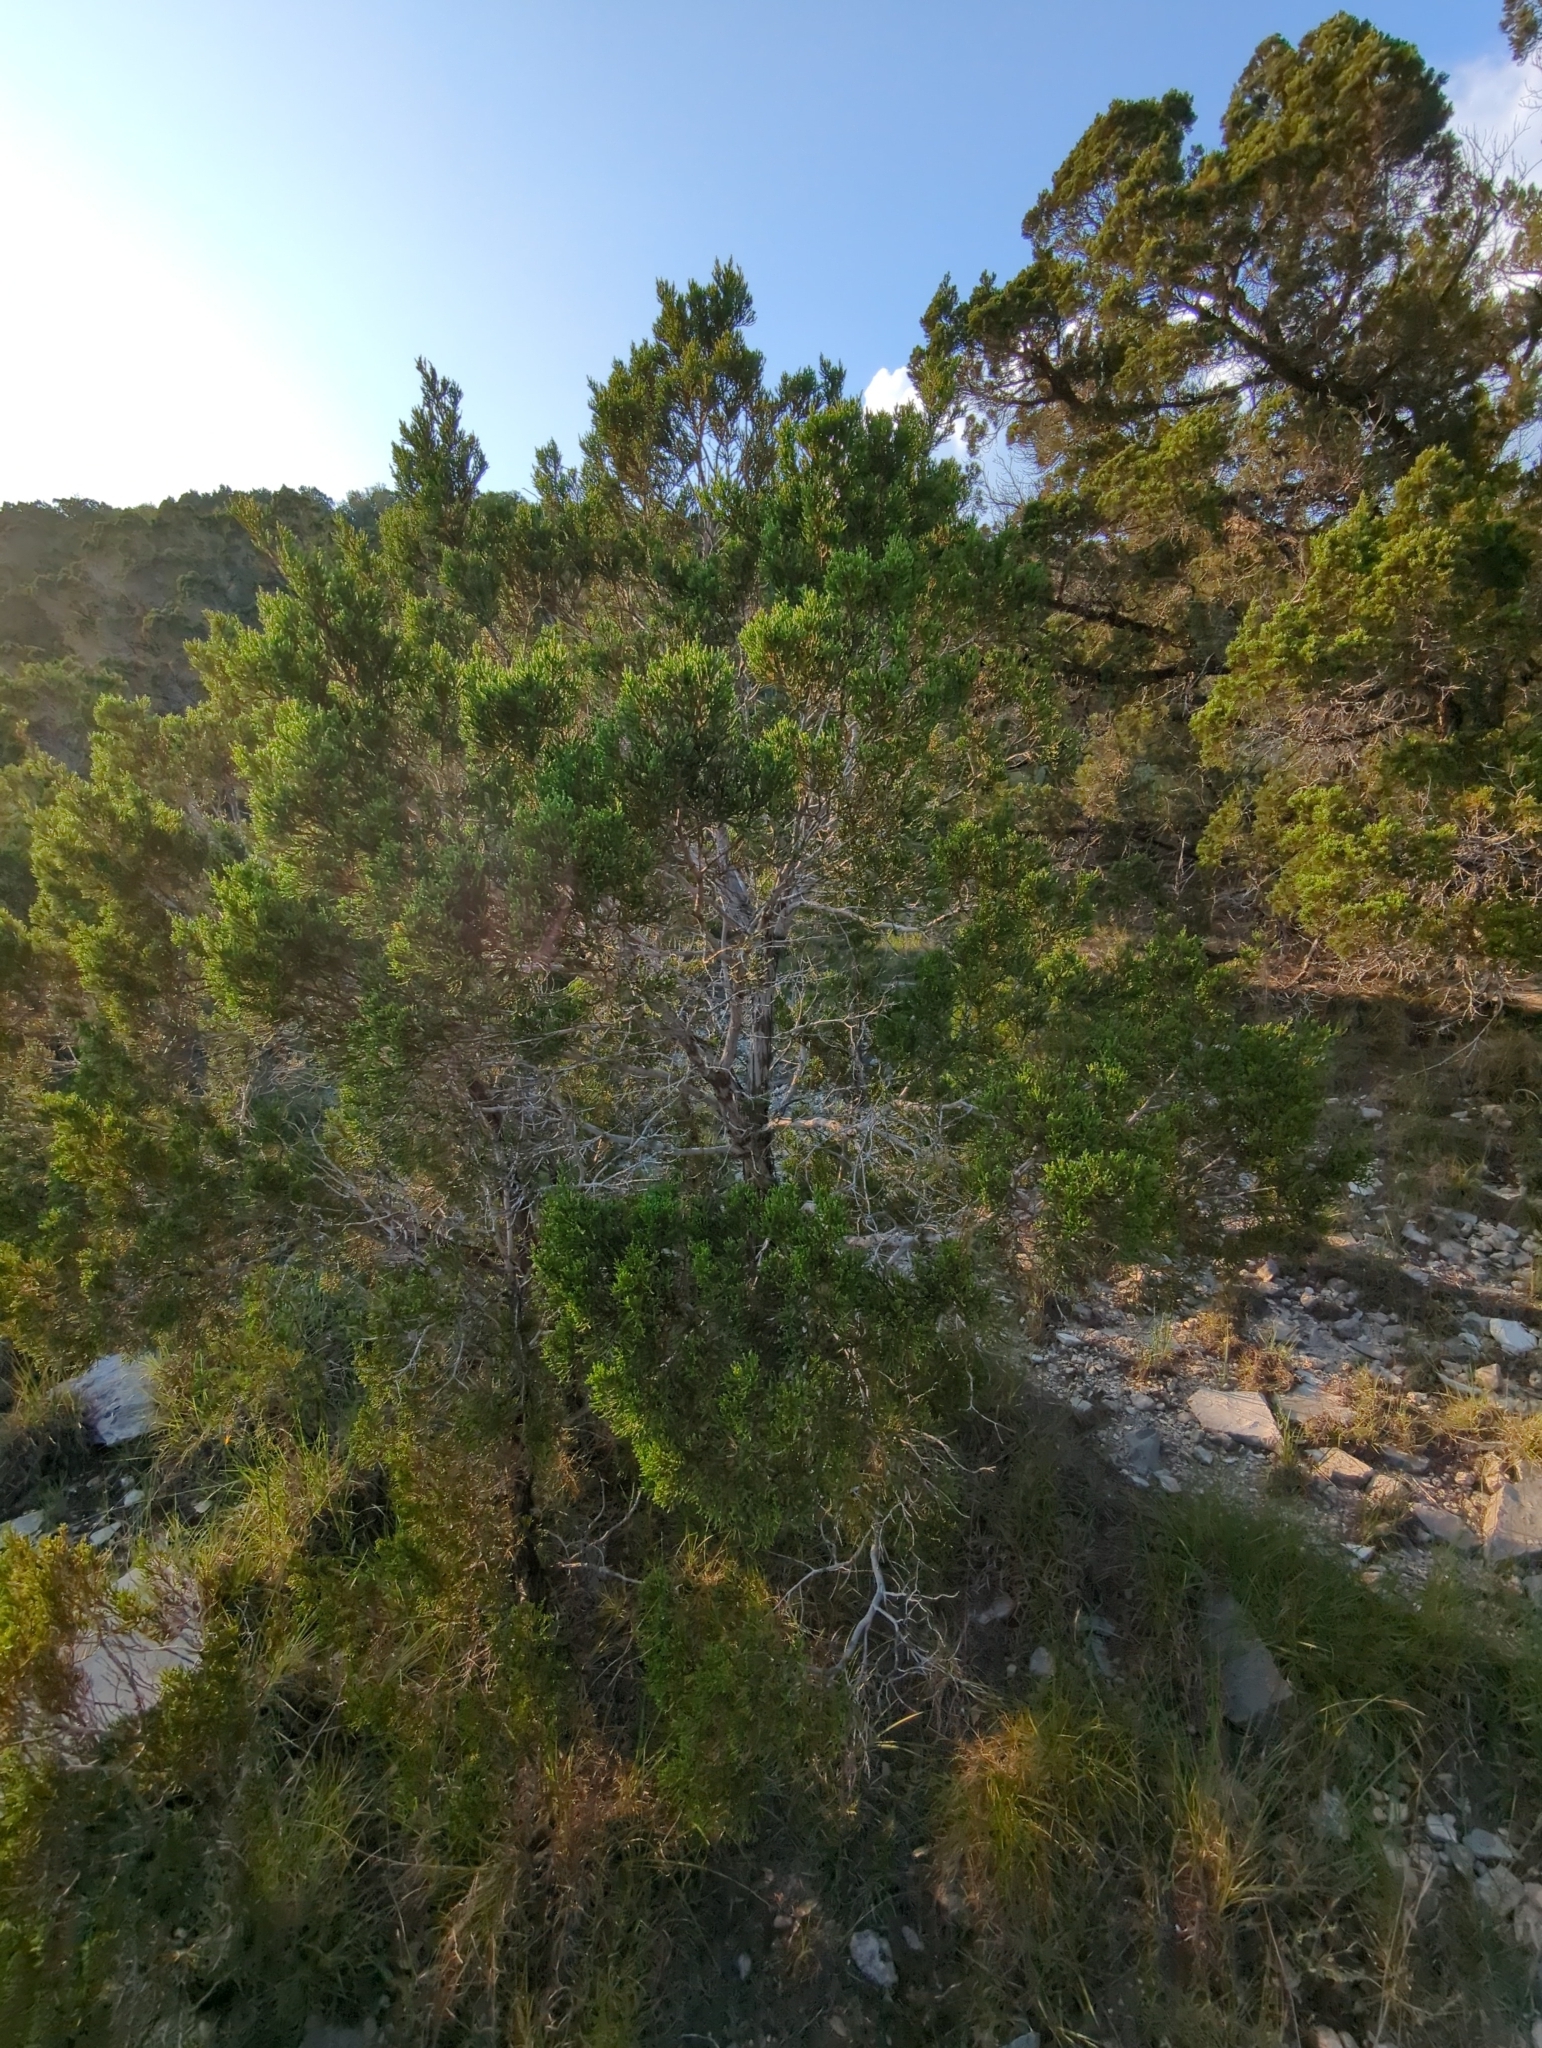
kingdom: Plantae
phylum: Tracheophyta
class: Pinopsida
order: Pinales
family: Cupressaceae
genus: Juniperus
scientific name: Juniperus ashei
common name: Mexican juniper
